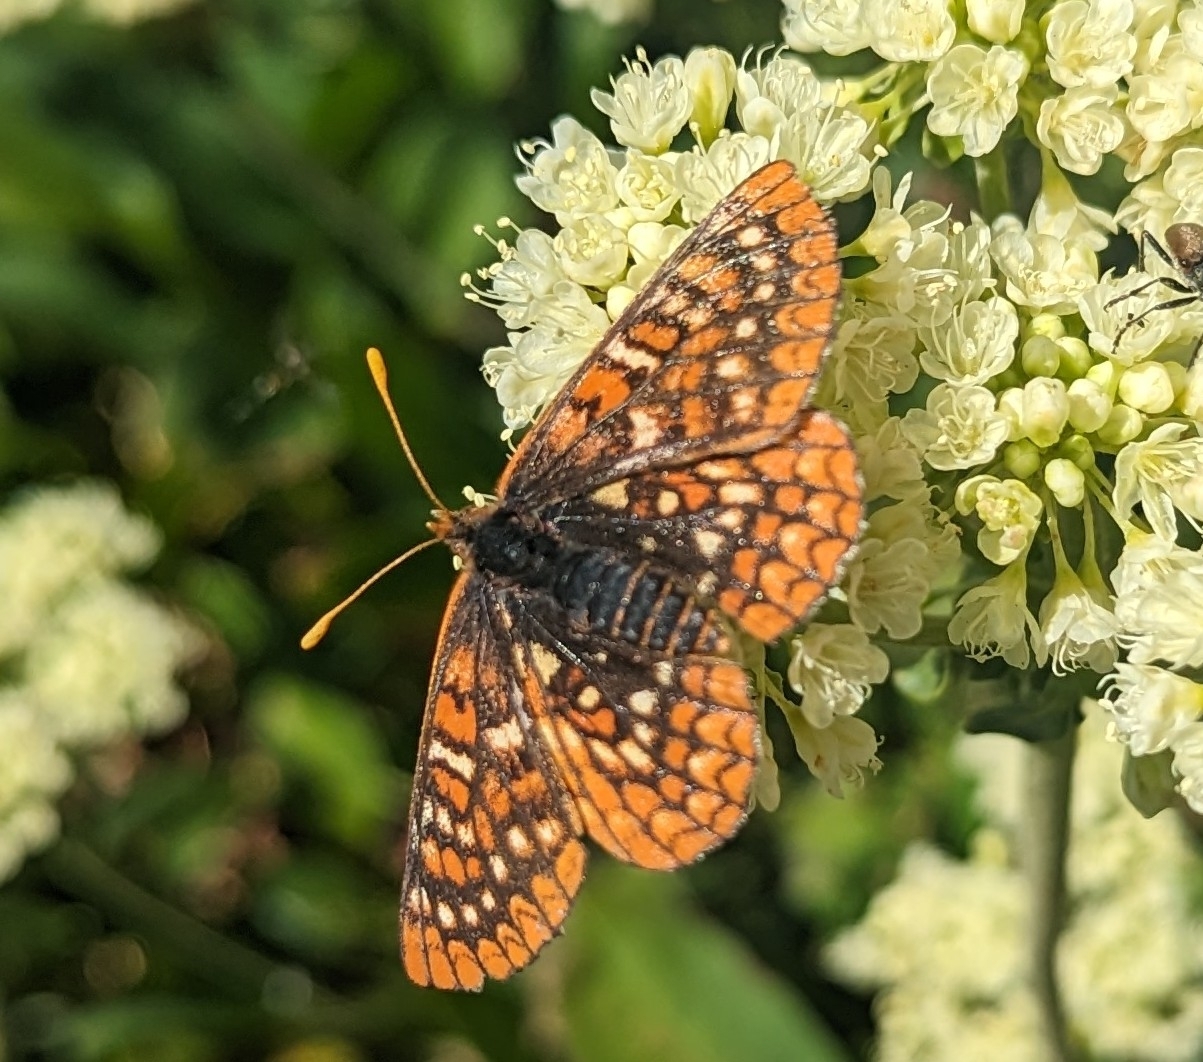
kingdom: Animalia
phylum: Arthropoda
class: Insecta
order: Lepidoptera
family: Nymphalidae
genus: Occidryas
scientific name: Occidryas anicia
